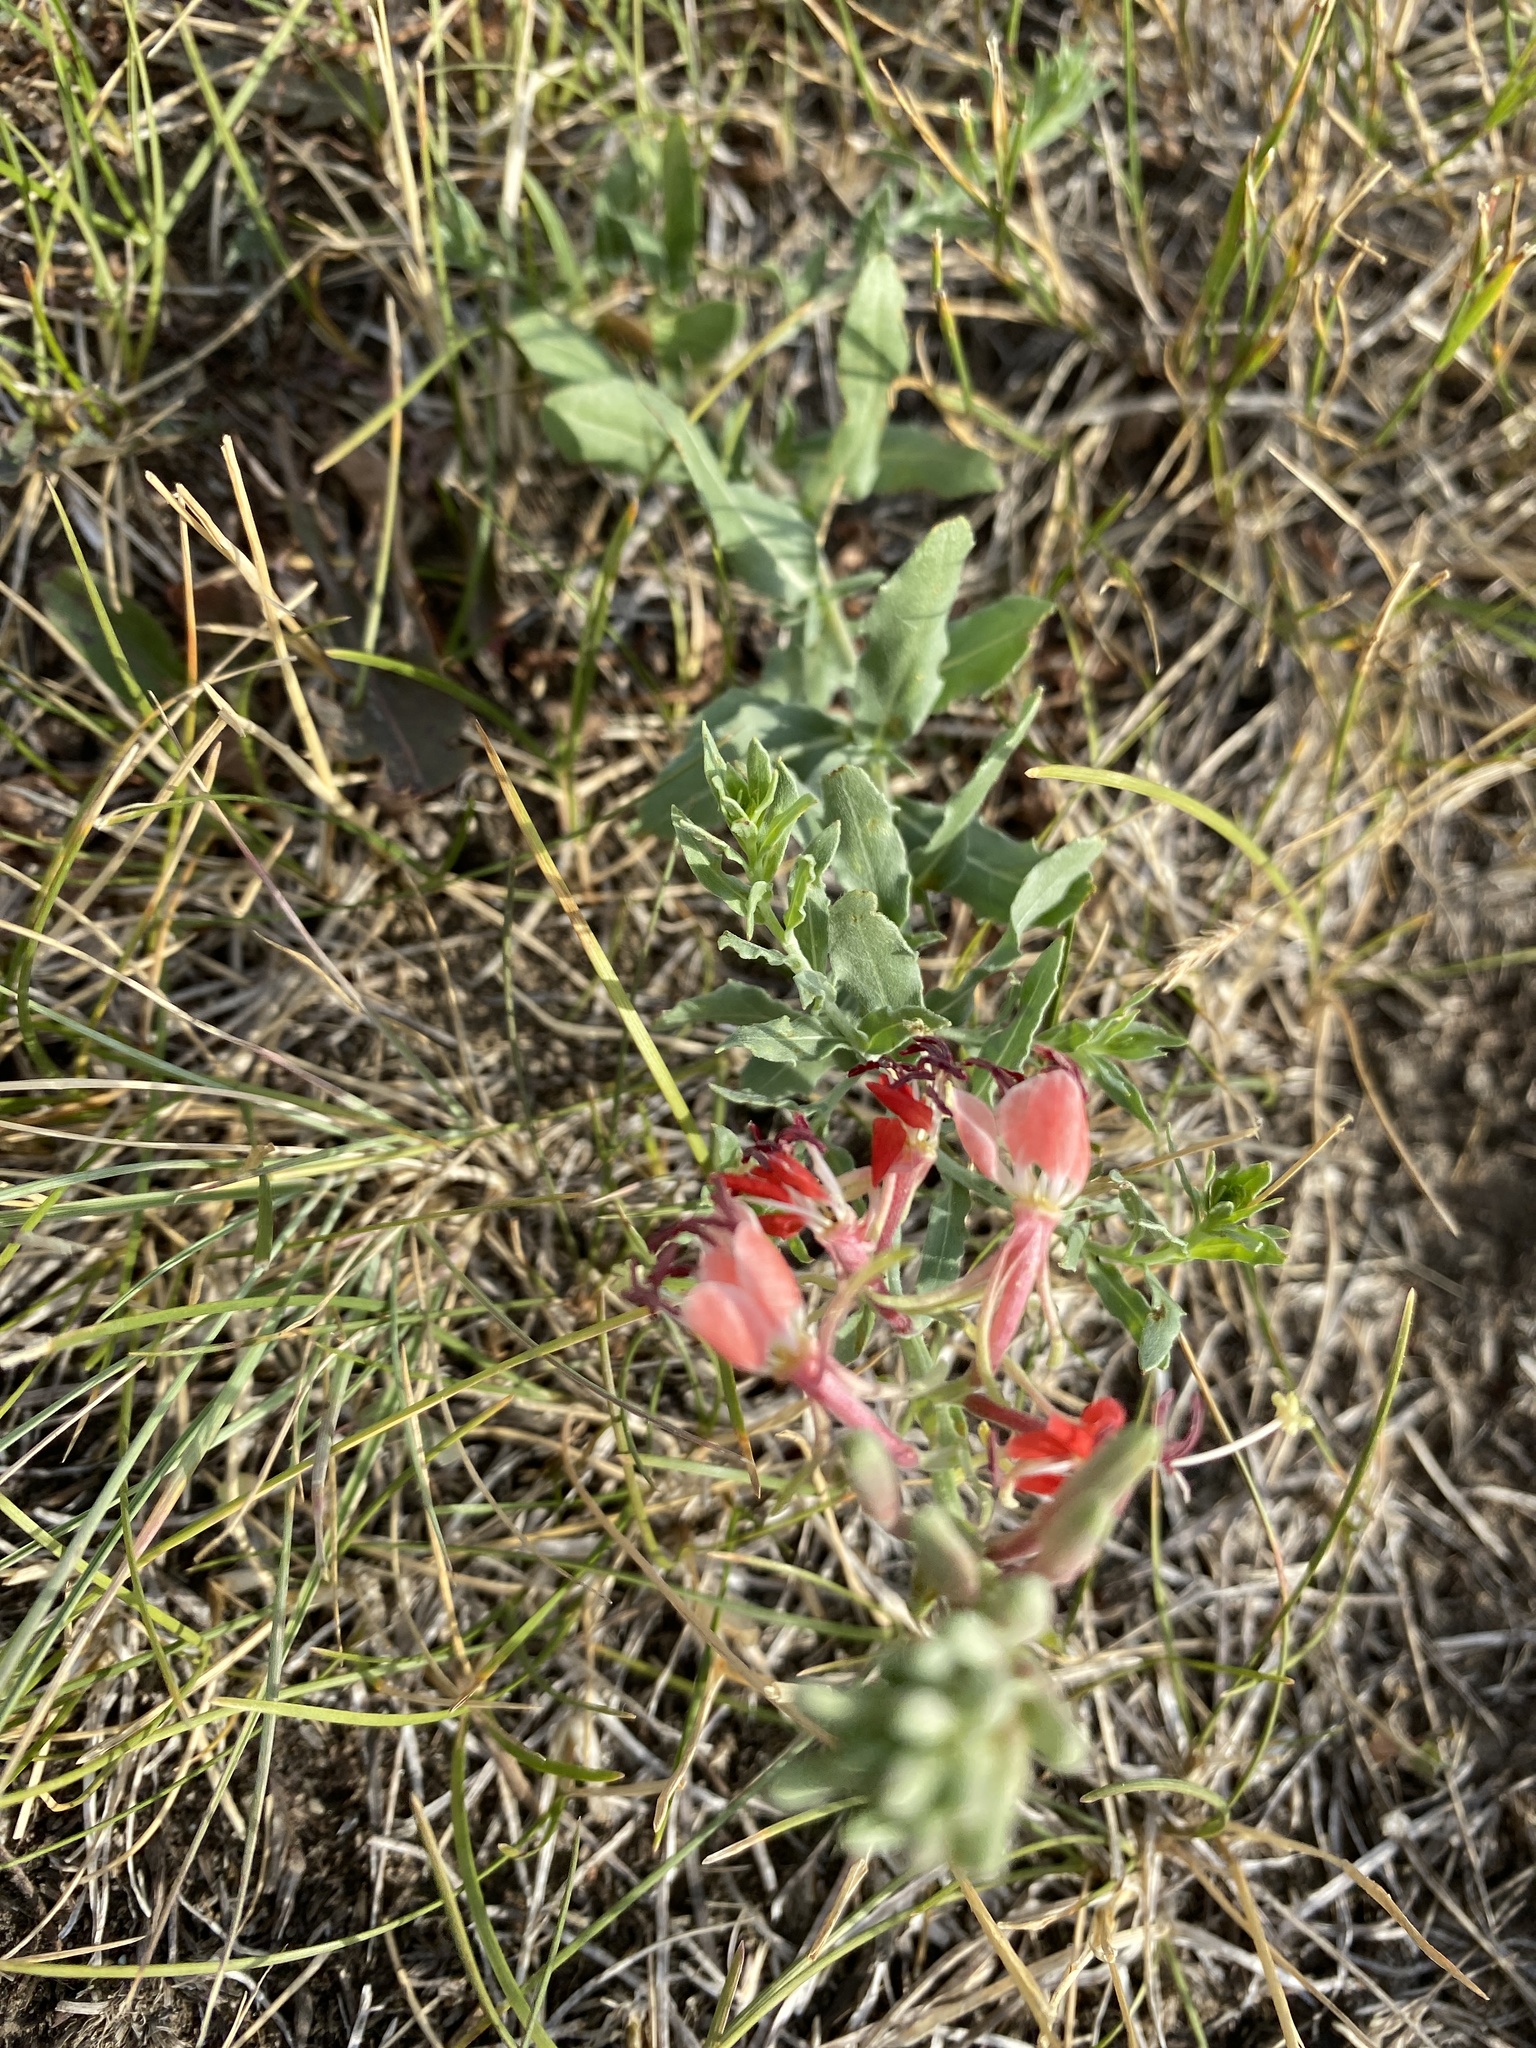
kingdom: Plantae
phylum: Tracheophyta
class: Magnoliopsida
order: Myrtales
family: Onagraceae
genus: Oenothera
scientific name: Oenothera suffrutescens
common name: Scarlet beeblossom
